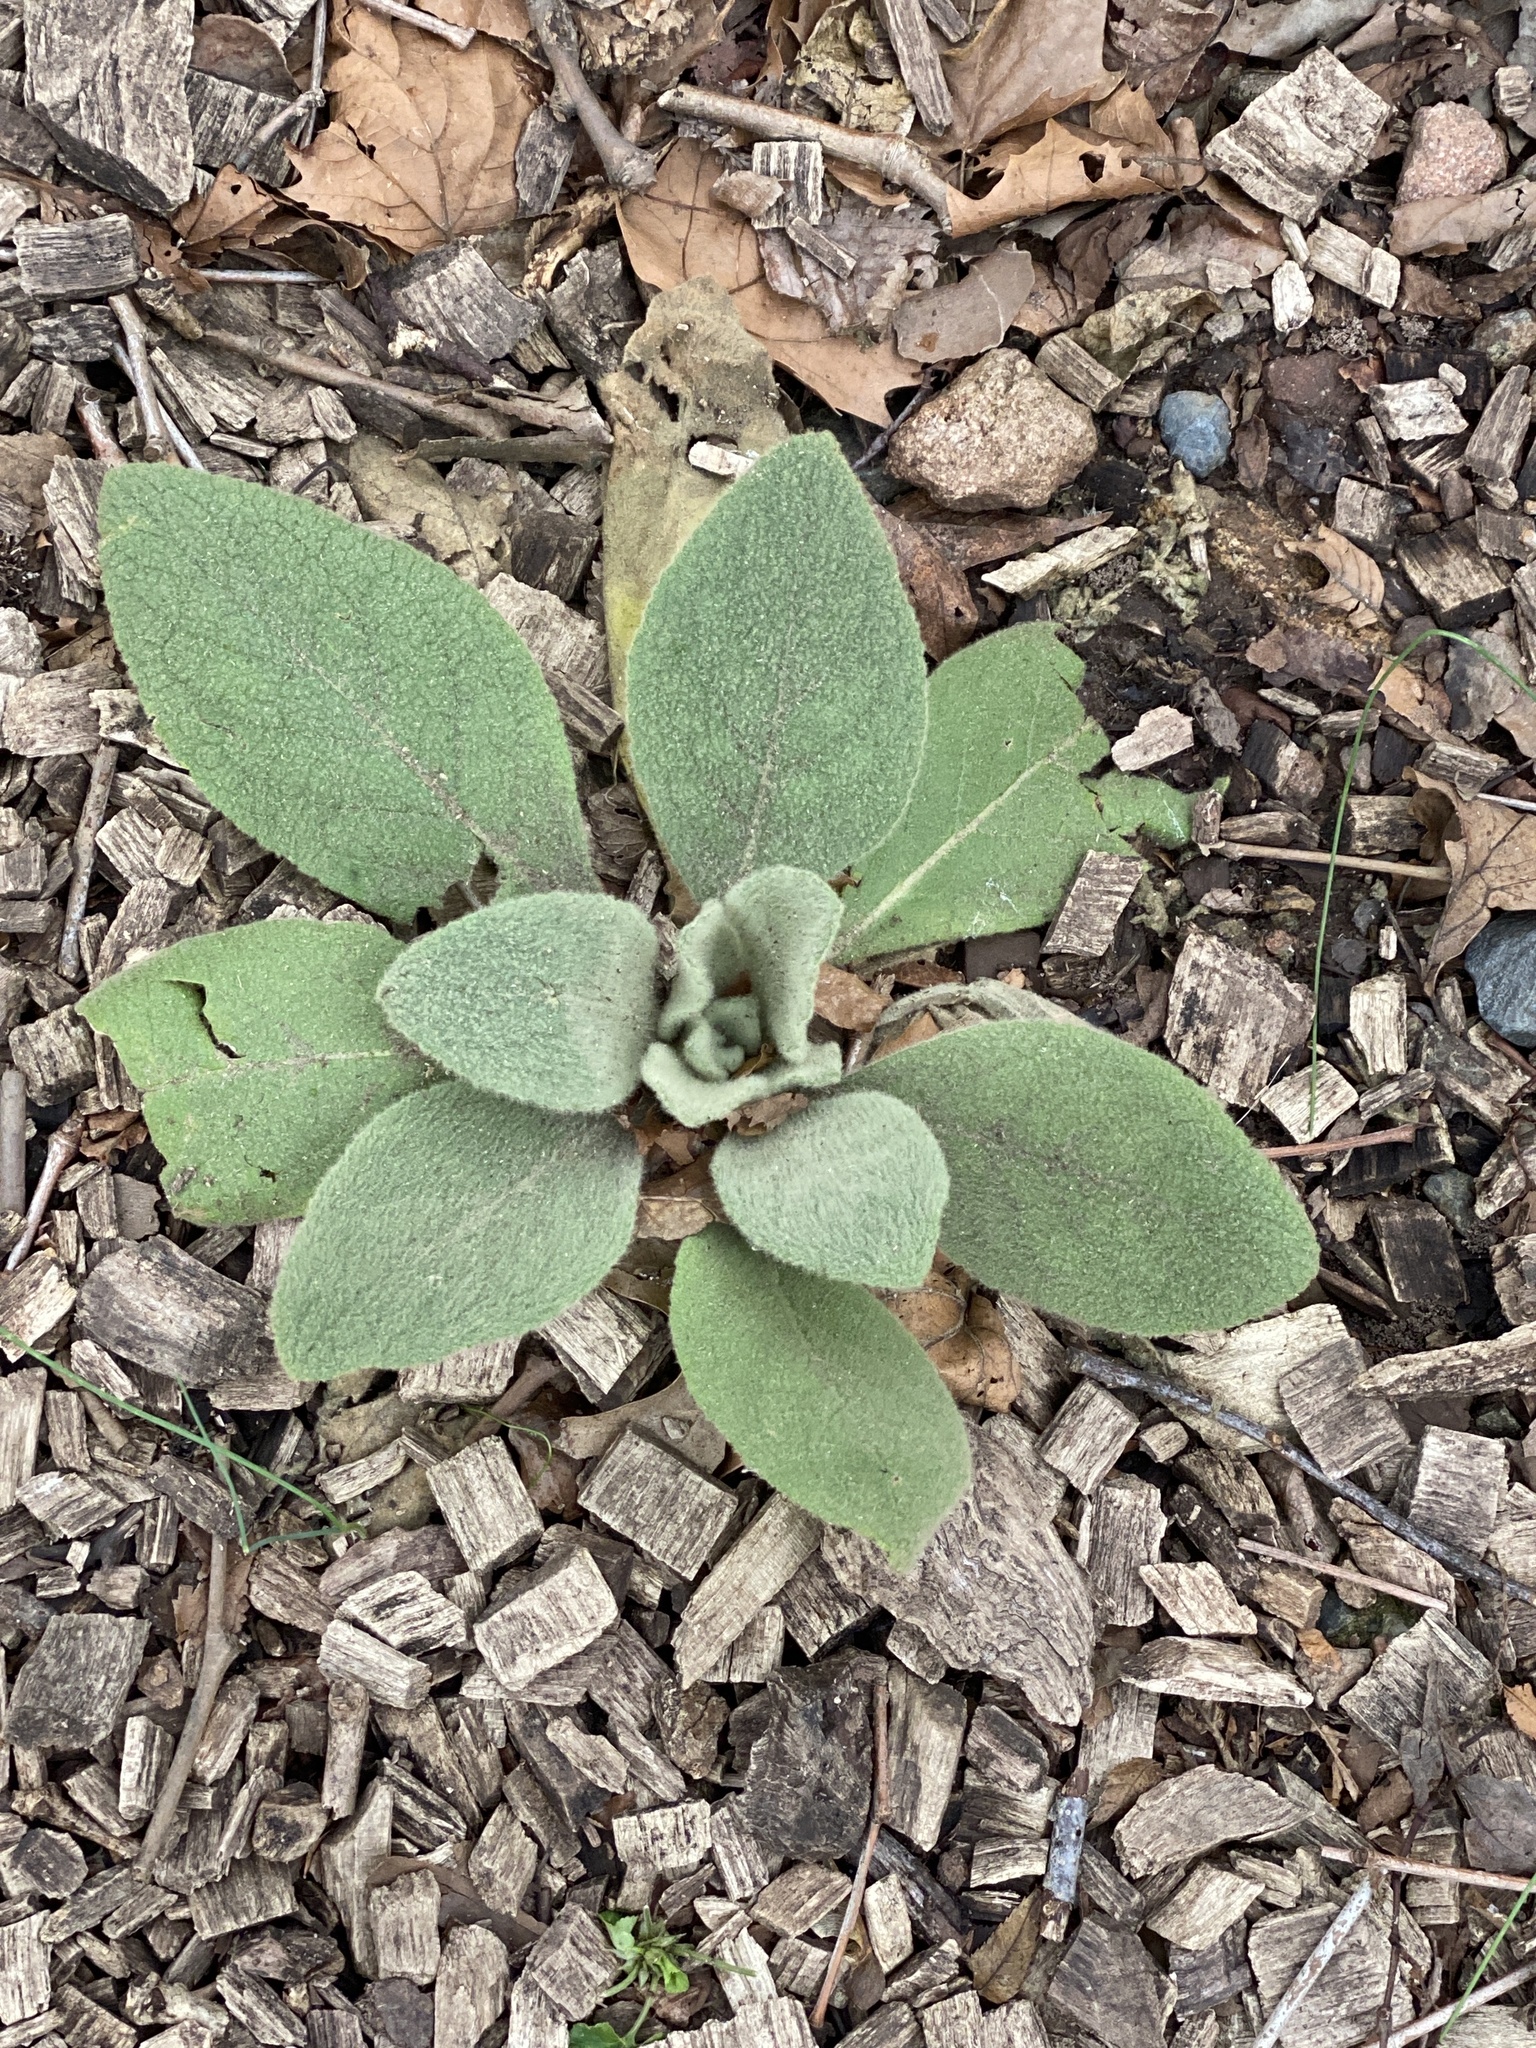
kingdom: Plantae
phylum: Tracheophyta
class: Magnoliopsida
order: Lamiales
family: Scrophulariaceae
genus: Verbascum
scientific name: Verbascum thapsus
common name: Common mullein
